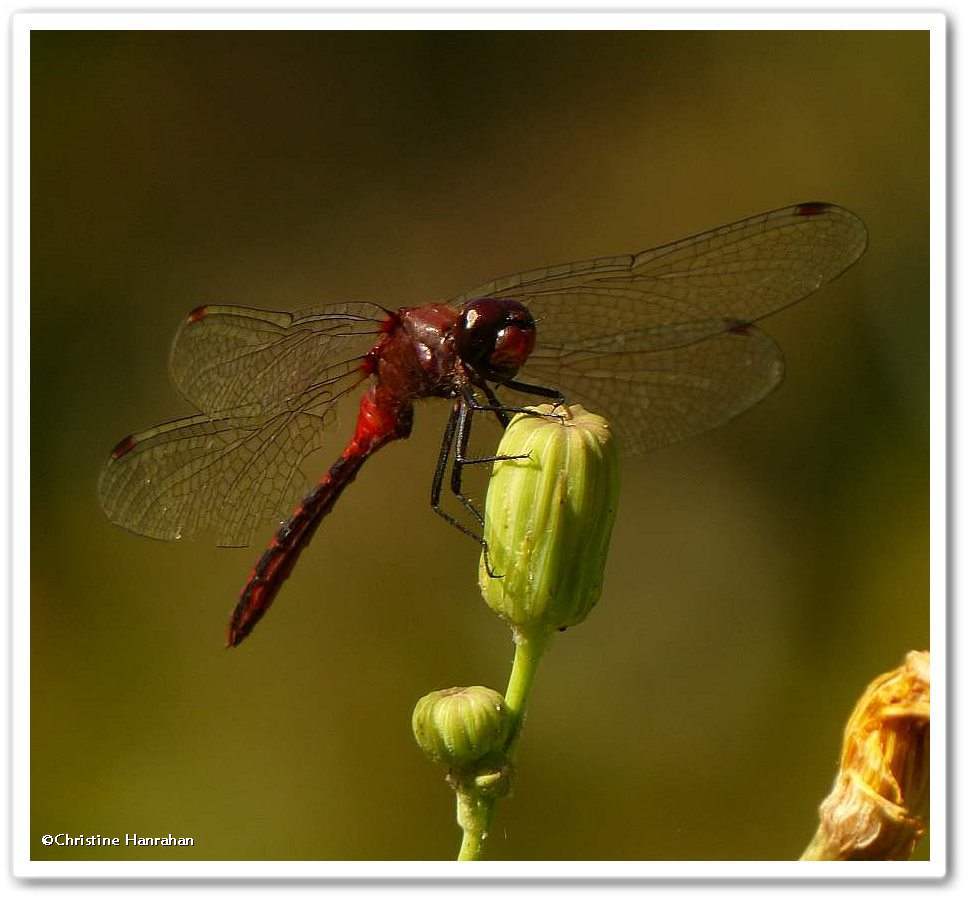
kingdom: Animalia
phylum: Arthropoda
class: Insecta
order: Odonata
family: Libellulidae
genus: Sympetrum
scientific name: Sympetrum
